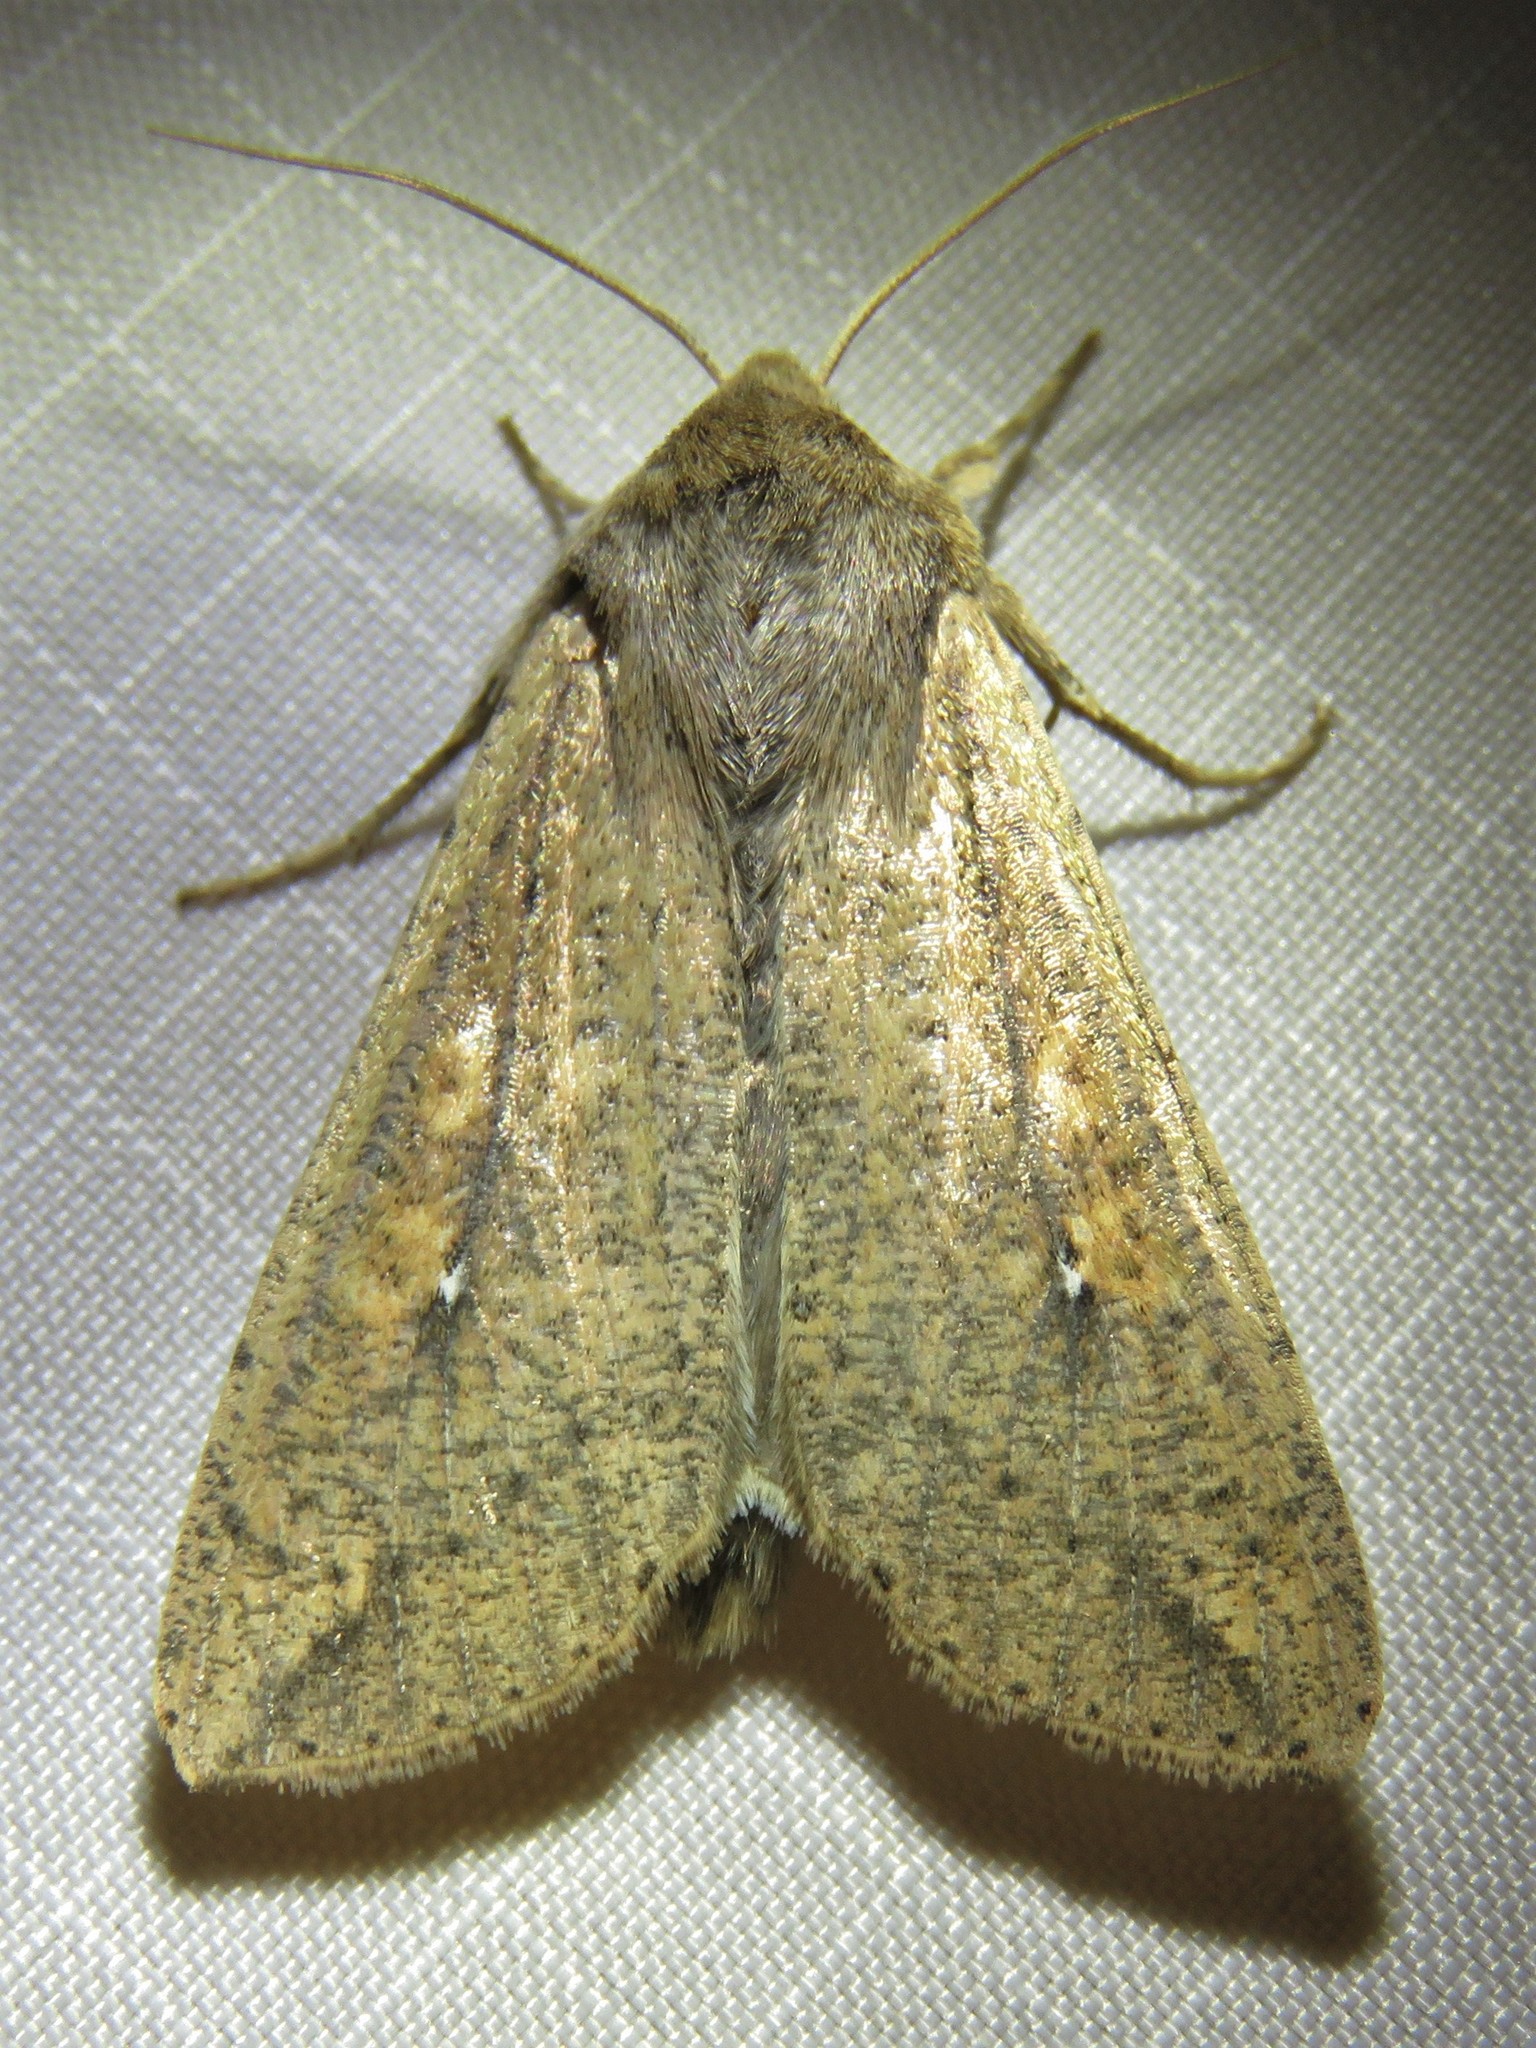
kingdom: Animalia
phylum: Arthropoda
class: Insecta
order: Lepidoptera
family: Noctuidae
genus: Mythimna
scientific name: Mythimna unipuncta
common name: White-speck
